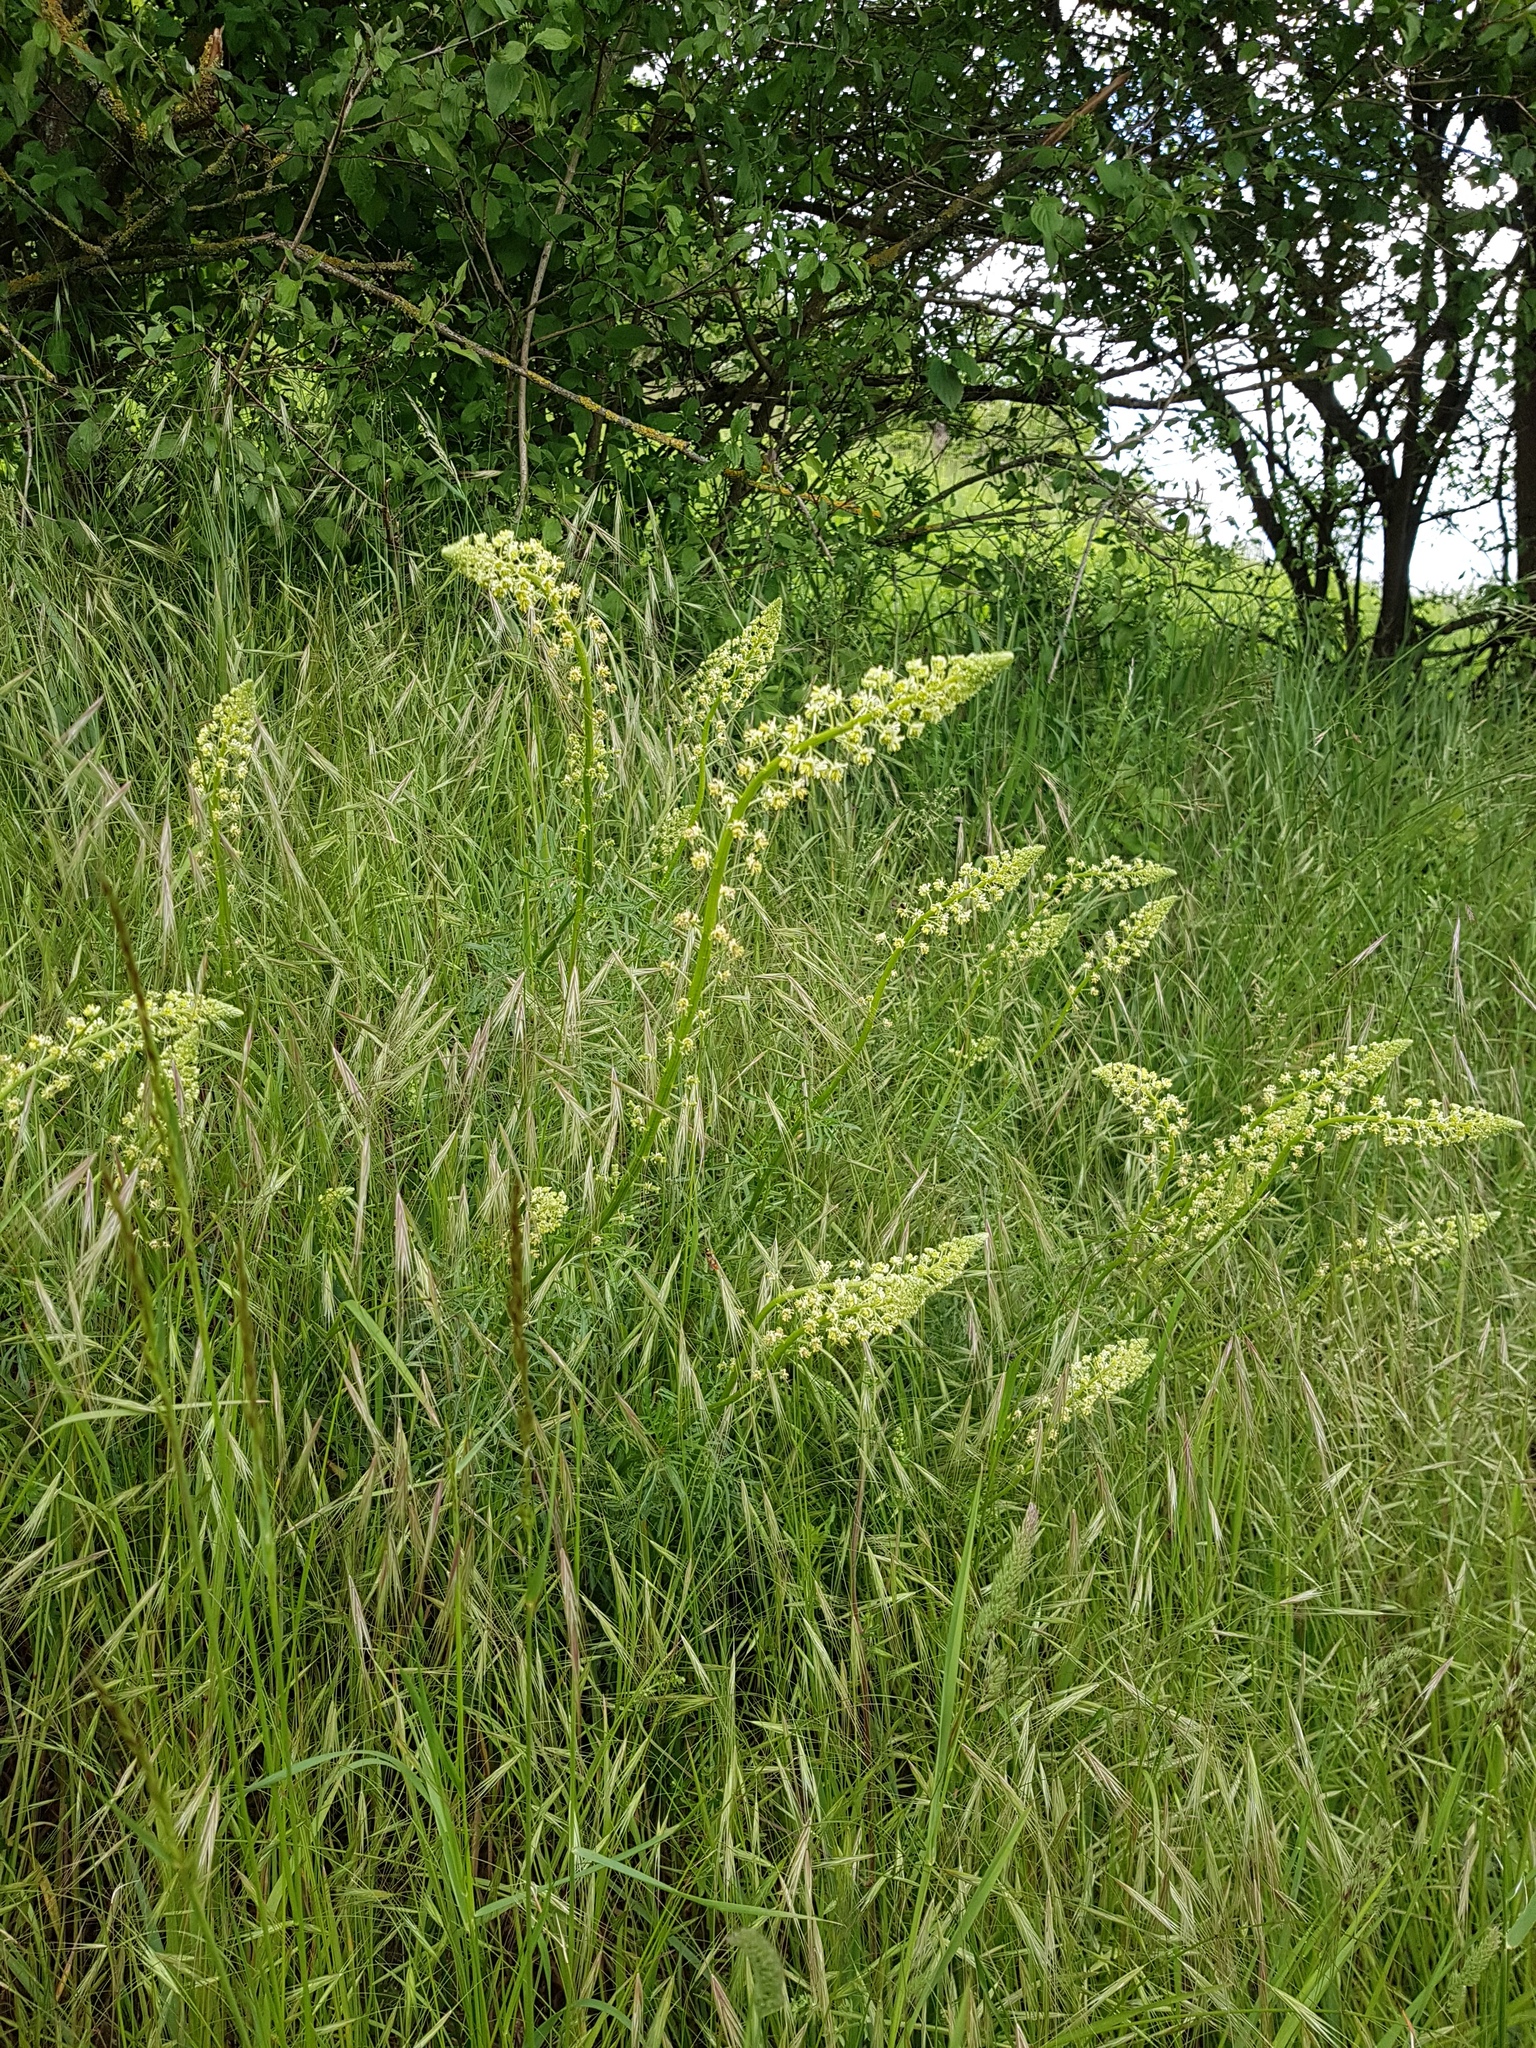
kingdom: Plantae
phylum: Tracheophyta
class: Magnoliopsida
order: Brassicales
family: Resedaceae
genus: Reseda
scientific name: Reseda lutea
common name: Wild mignonette
